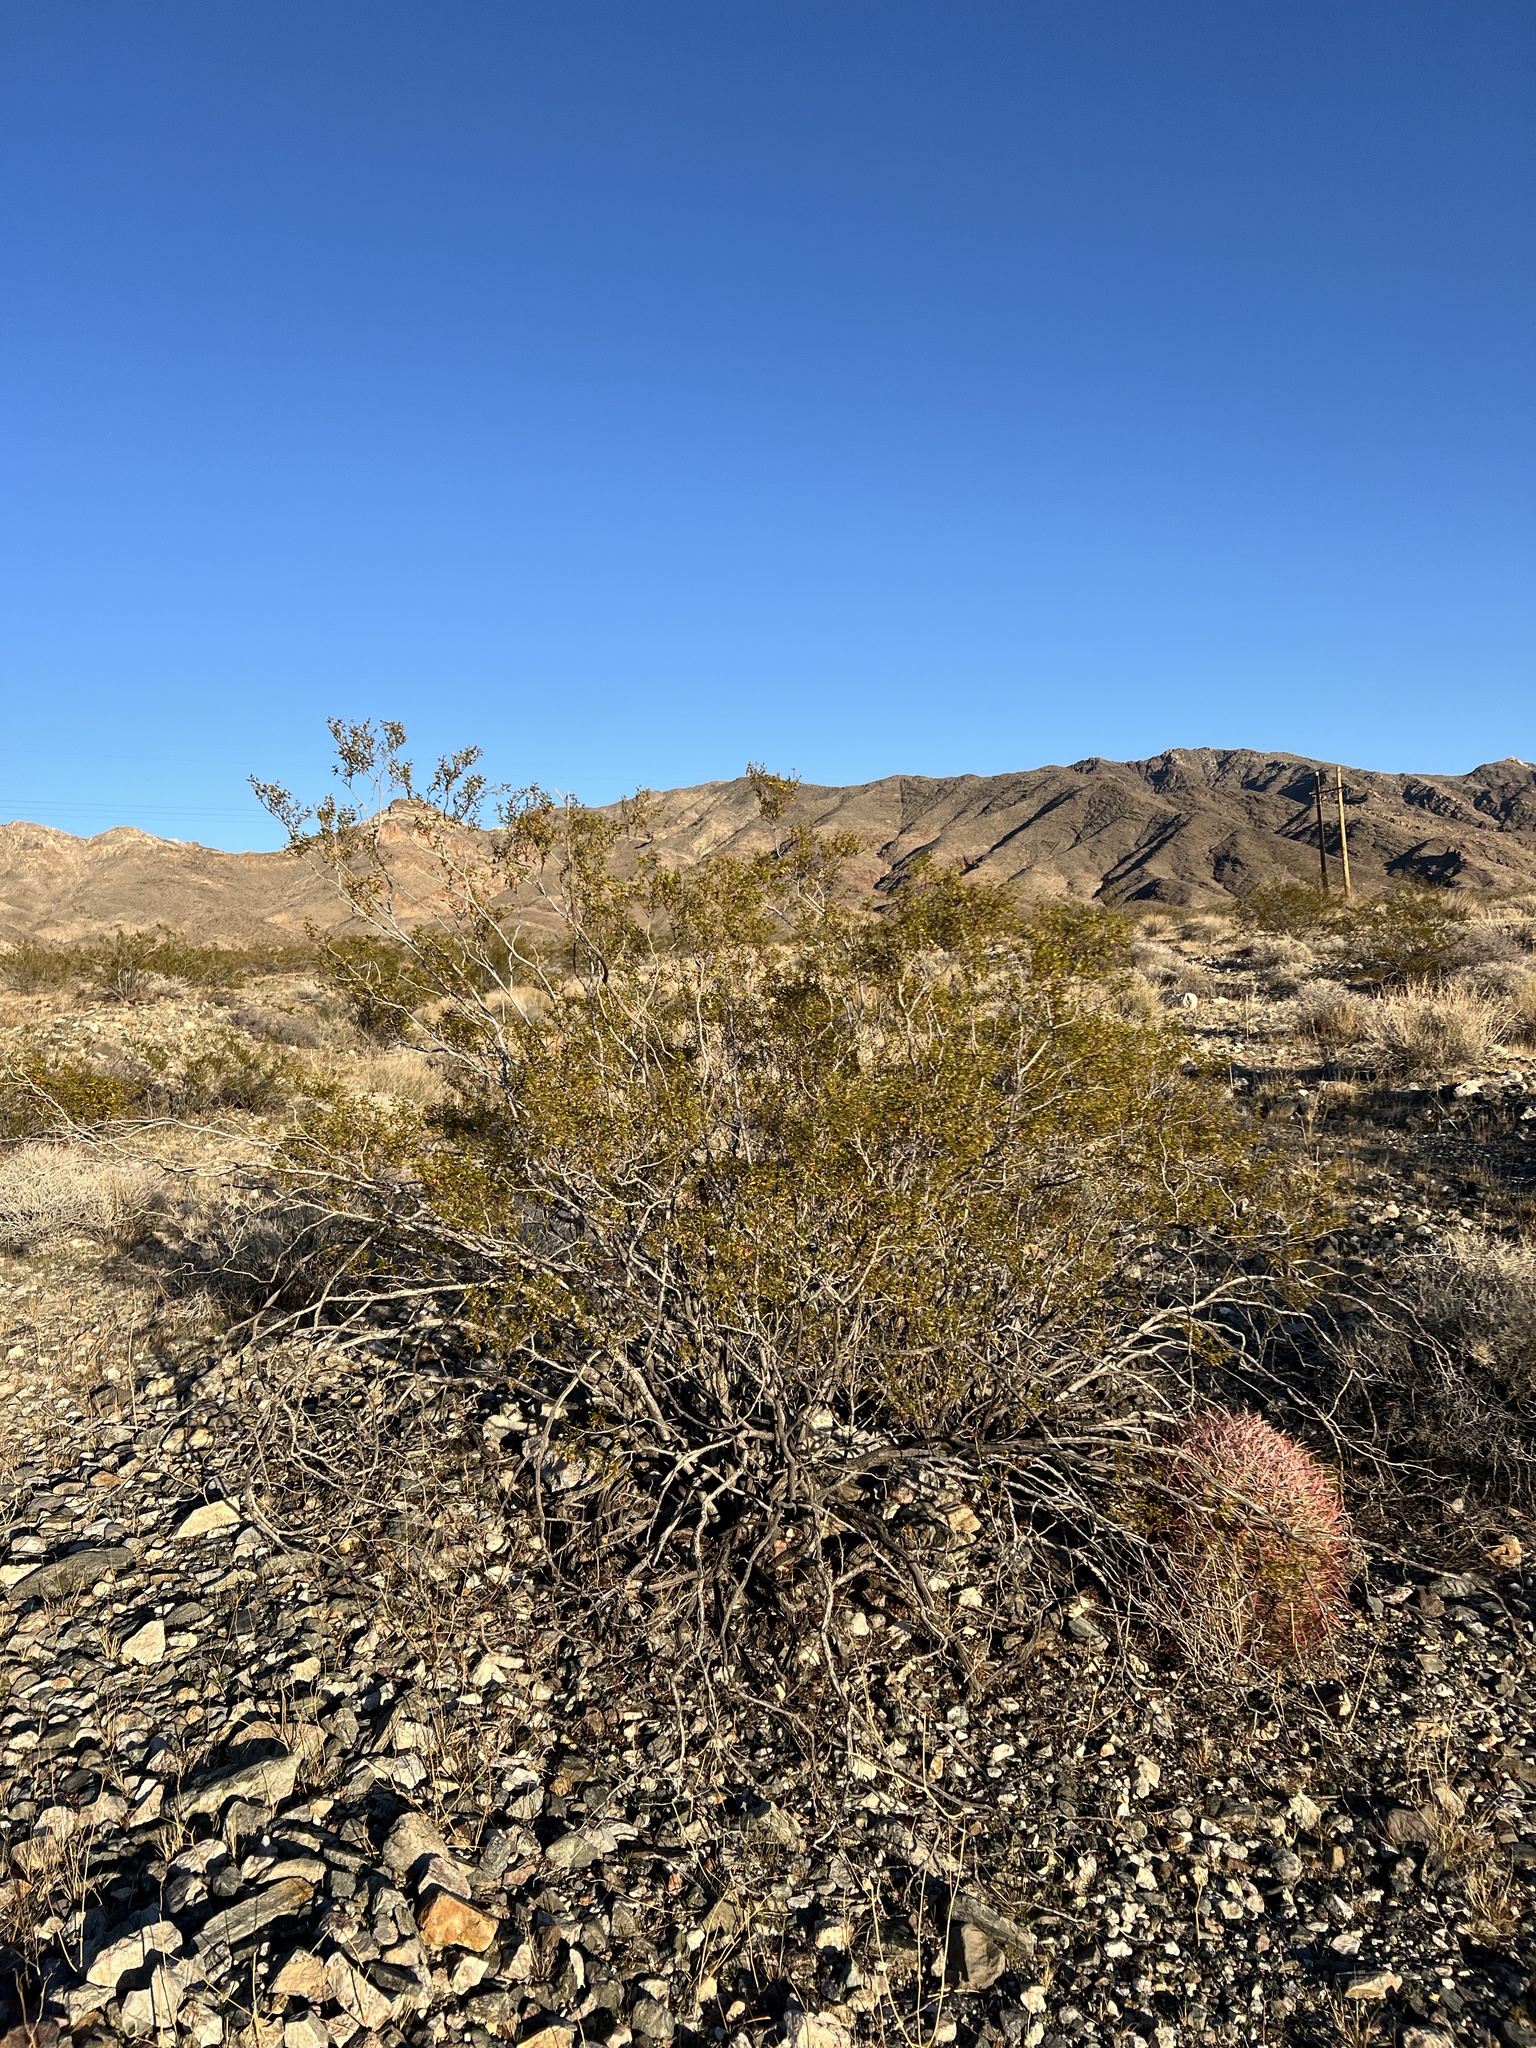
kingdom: Plantae
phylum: Tracheophyta
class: Magnoliopsida
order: Zygophyllales
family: Zygophyllaceae
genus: Larrea
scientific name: Larrea tridentata
